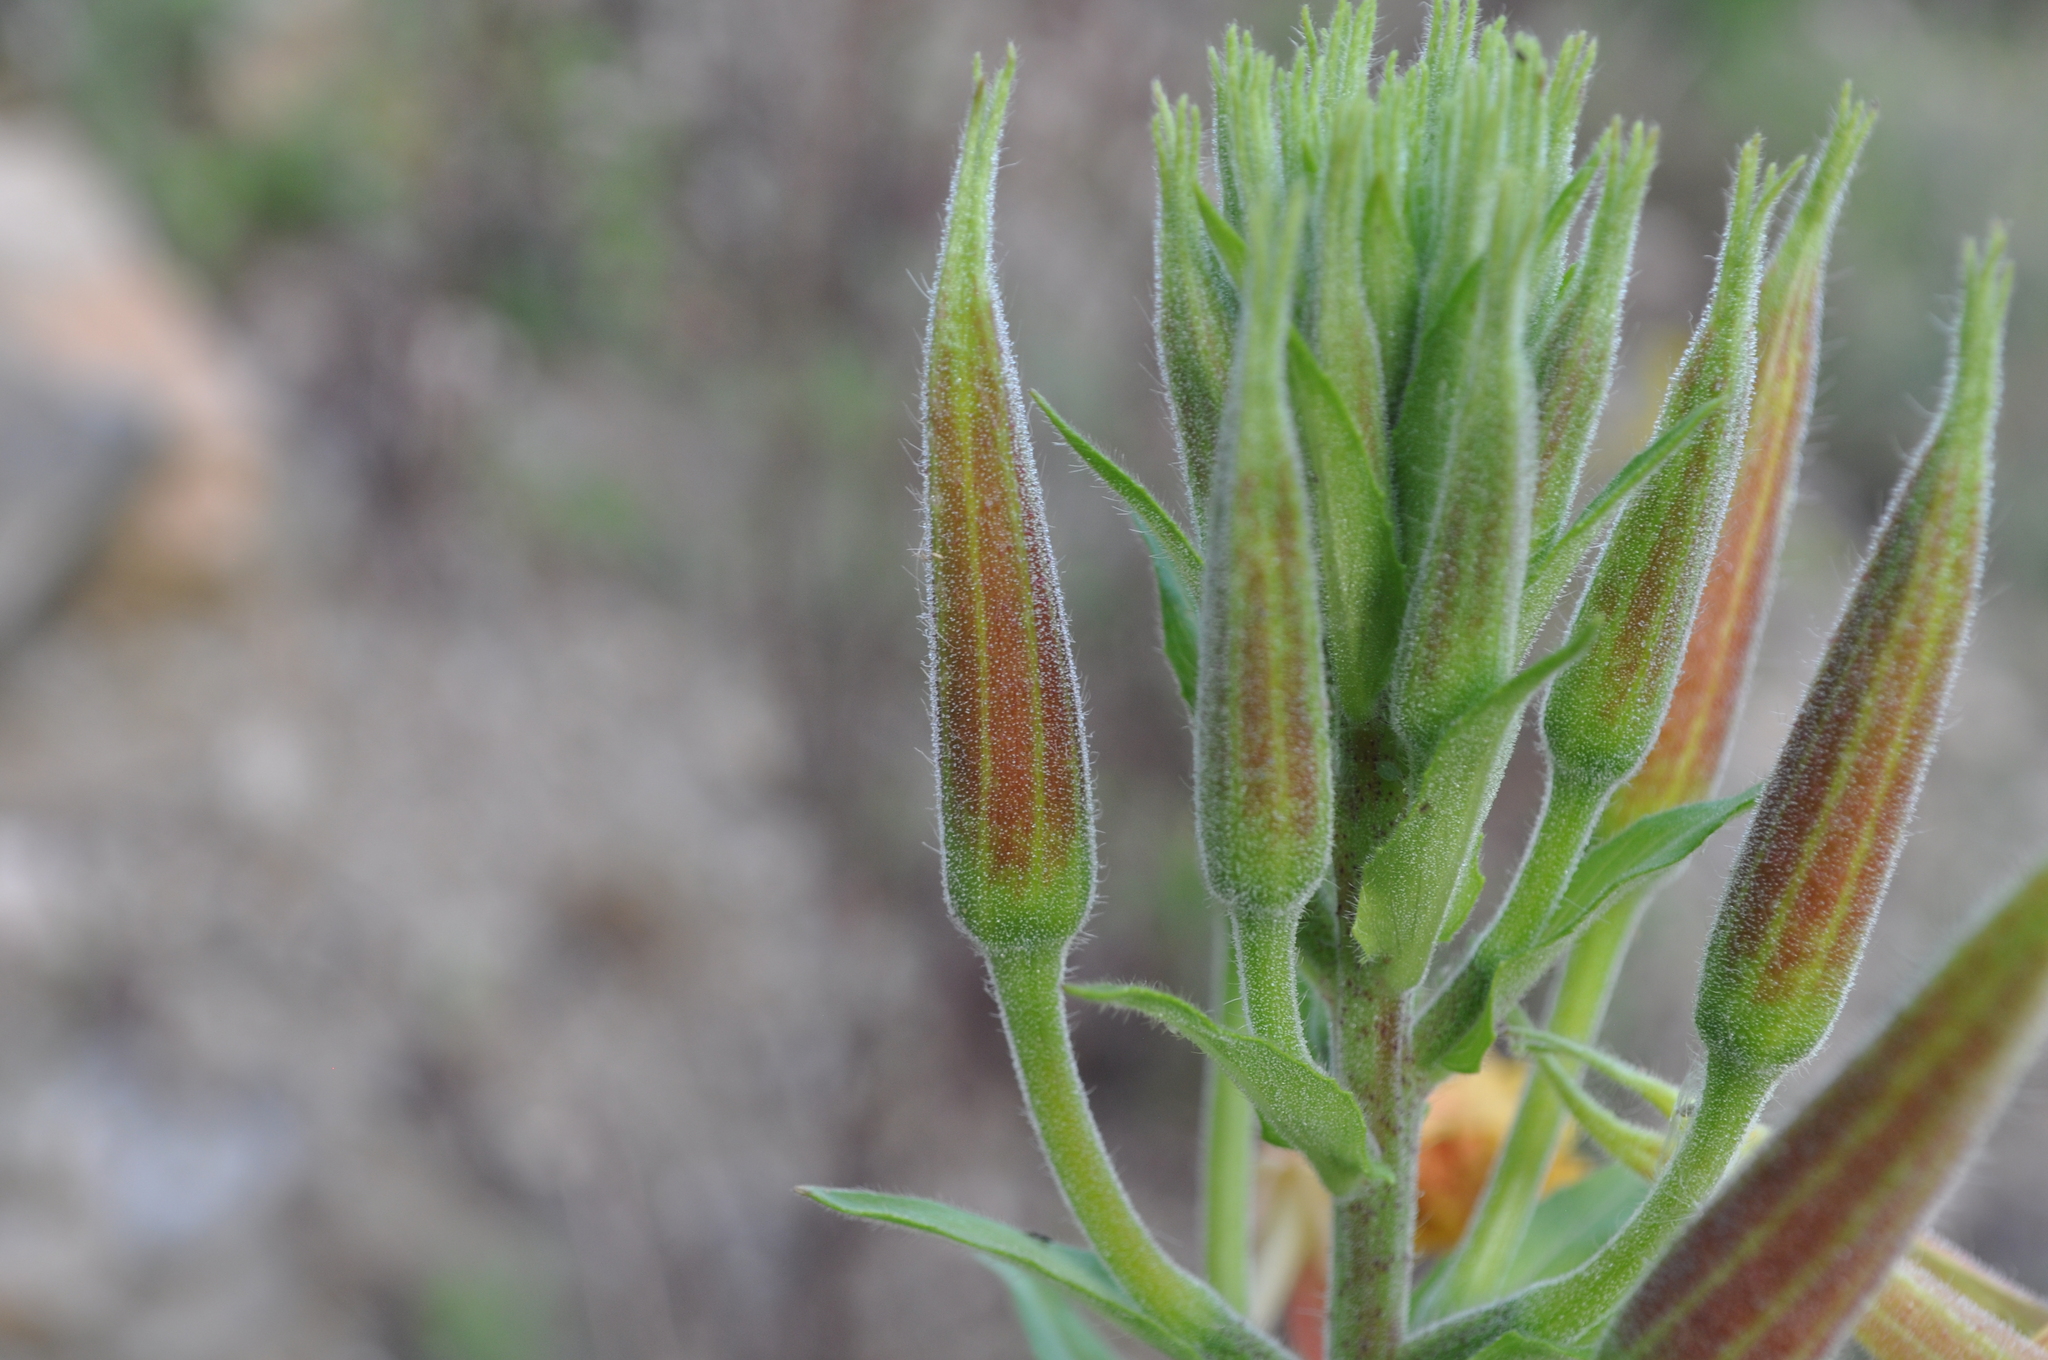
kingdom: Plantae
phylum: Tracheophyta
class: Magnoliopsida
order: Myrtales
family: Onagraceae
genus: Oenothera
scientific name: Oenothera glazioviana
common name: Large-flowered evening-primrose
